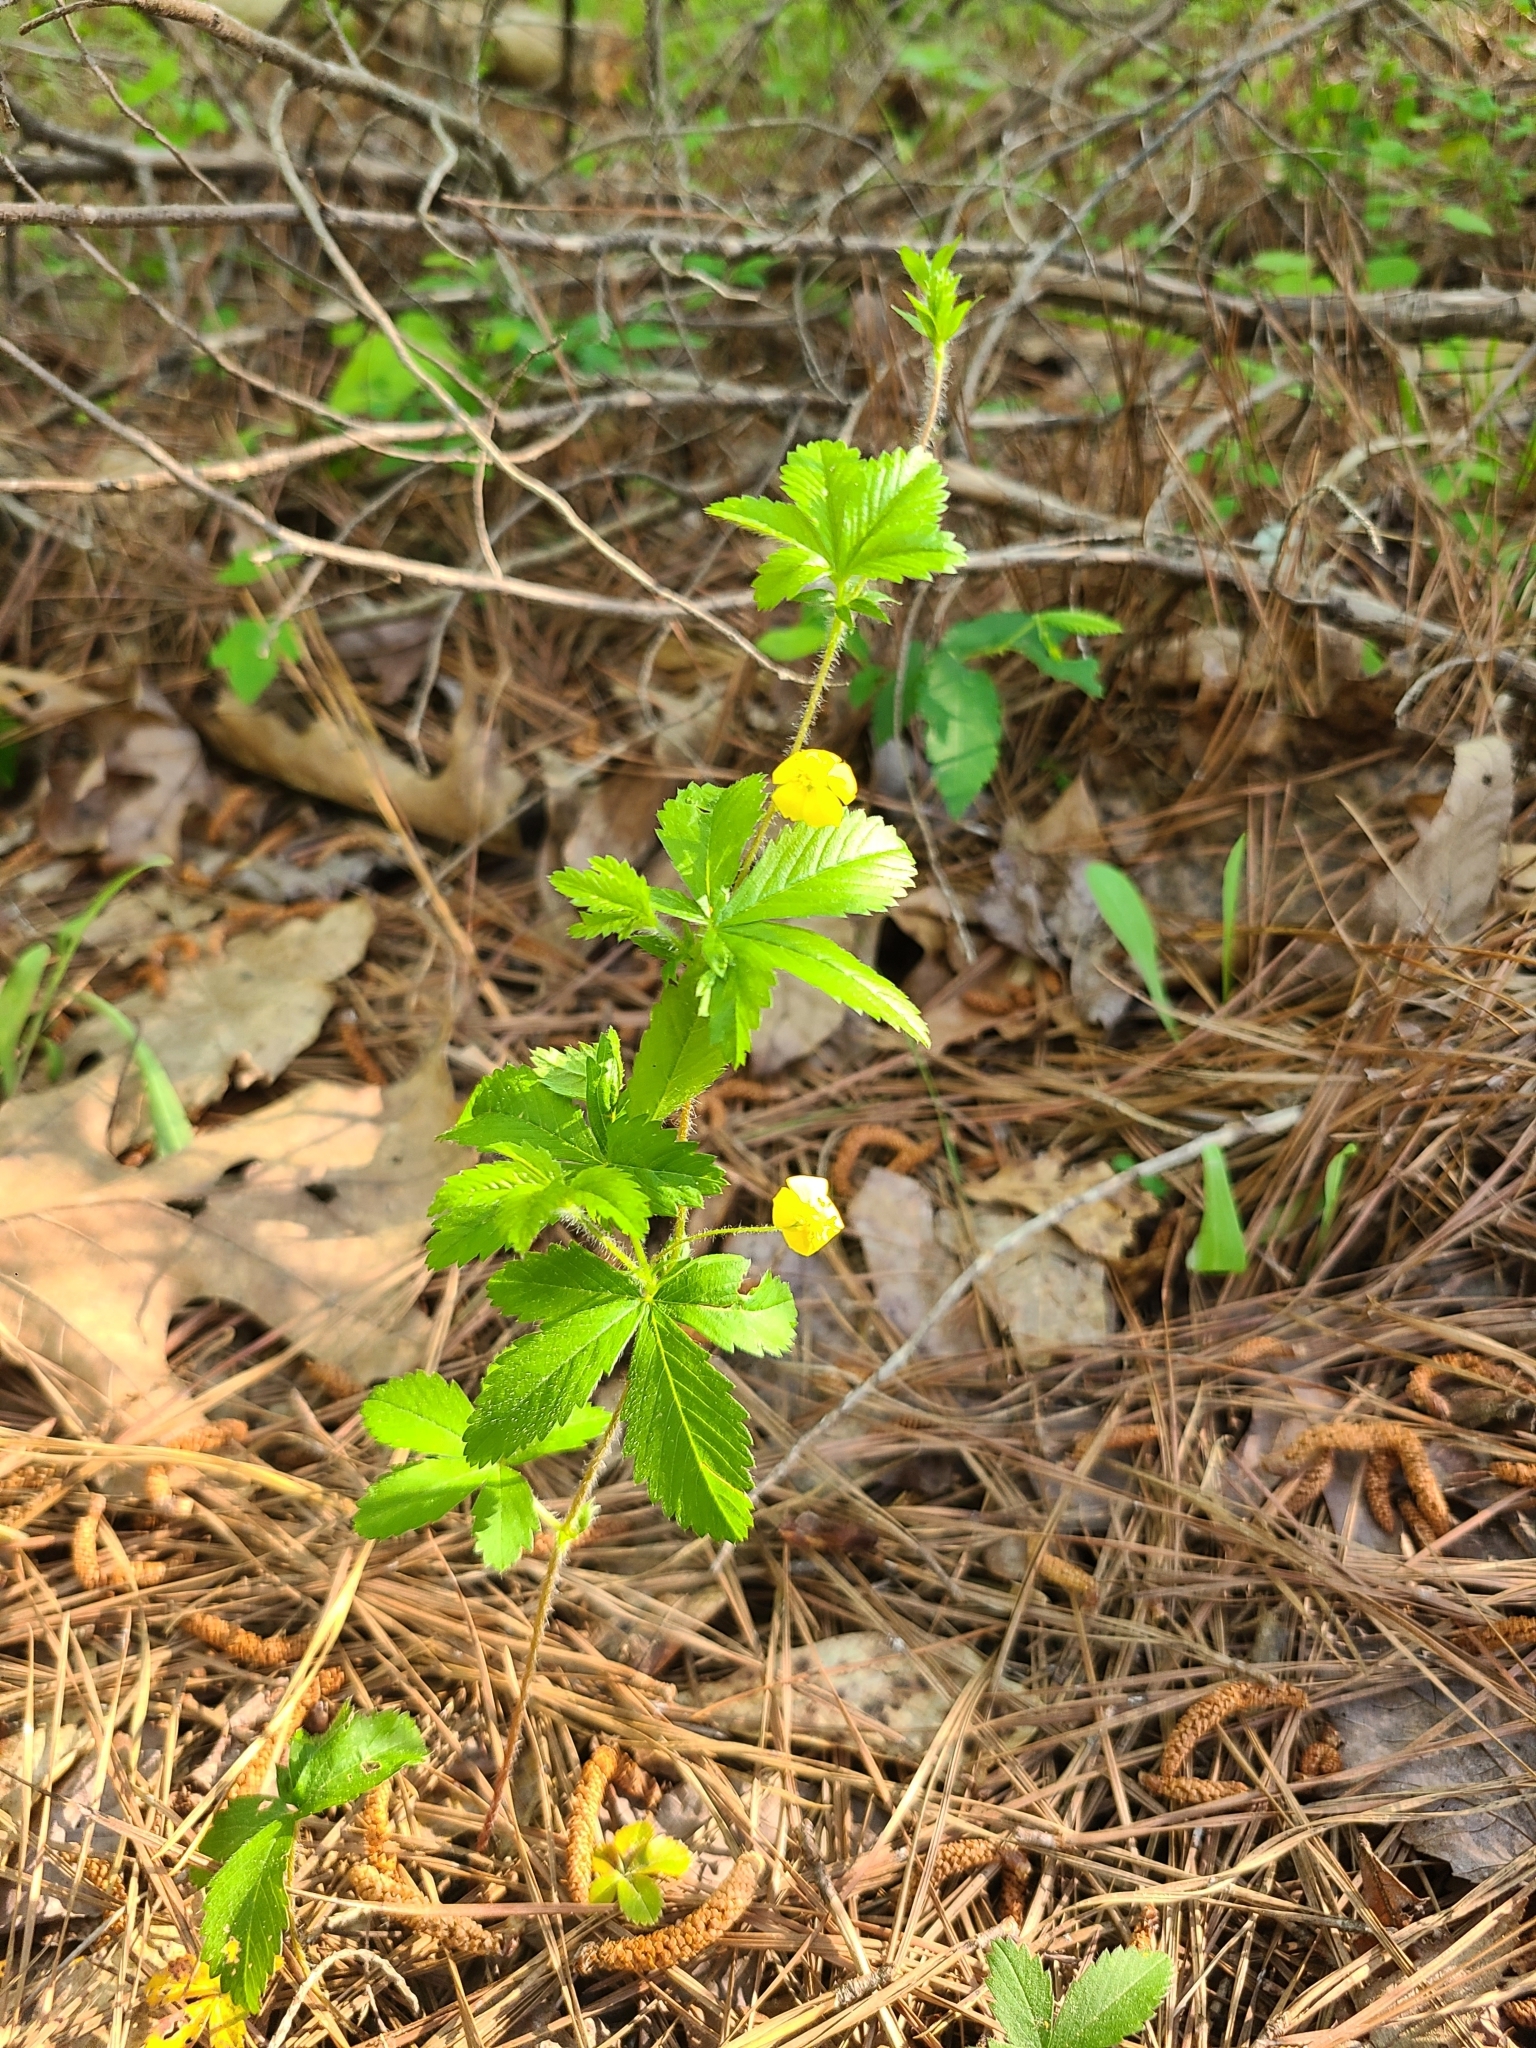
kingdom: Plantae
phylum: Tracheophyta
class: Magnoliopsida
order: Rosales
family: Rosaceae
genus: Potentilla
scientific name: Potentilla simplex
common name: Old field cinquefoil
